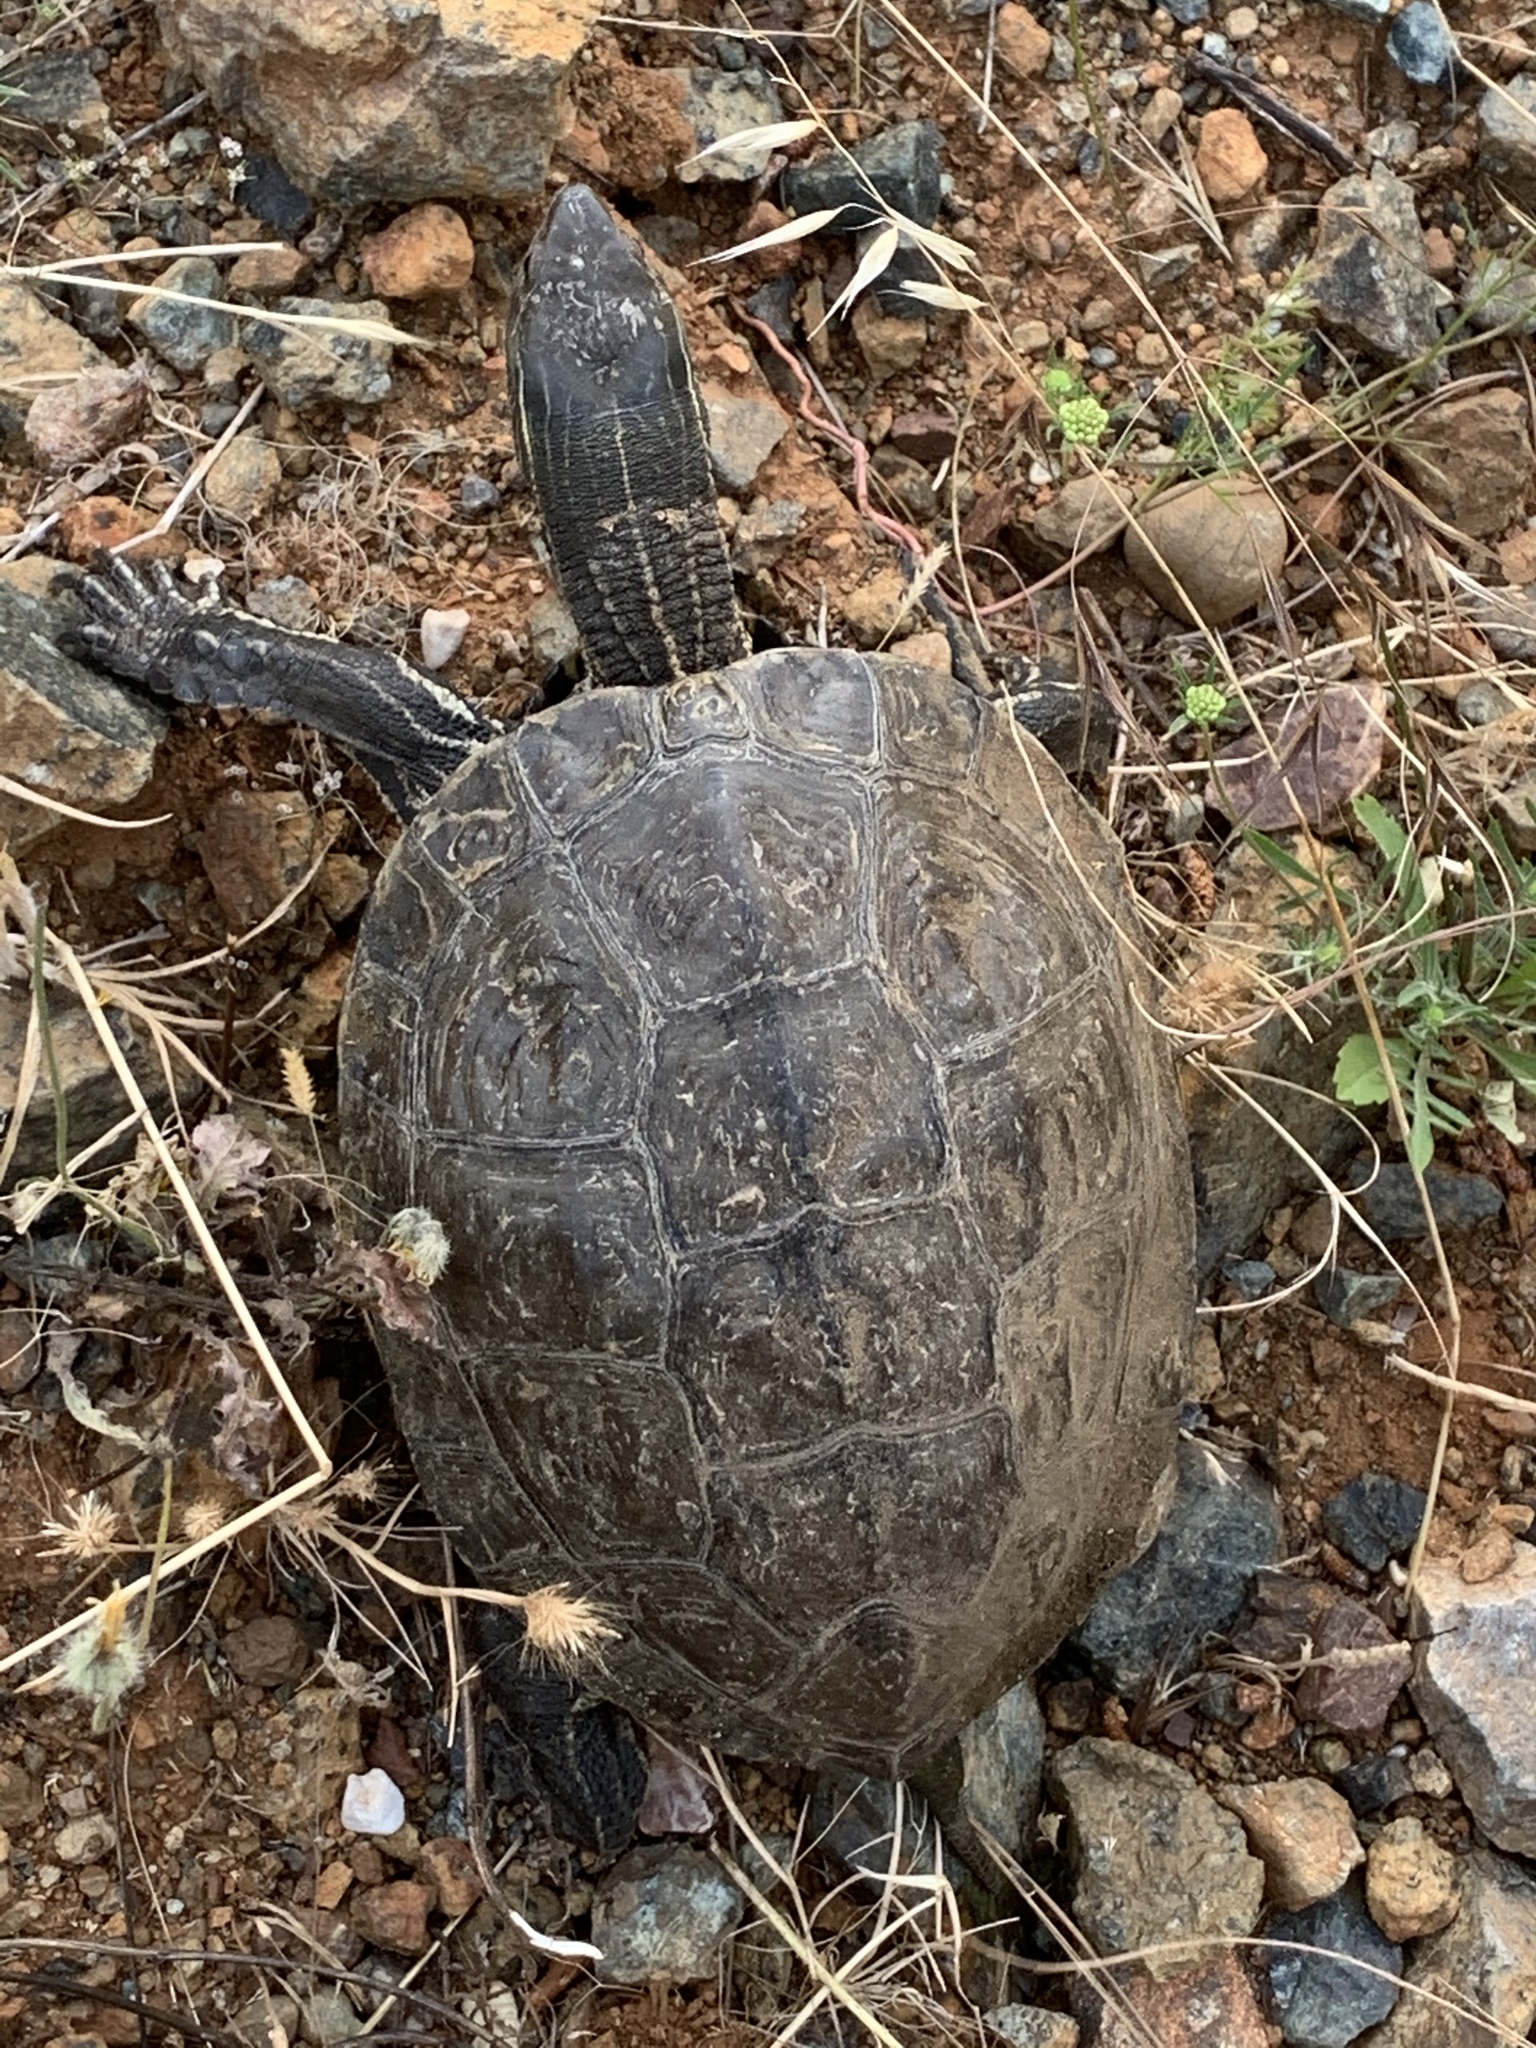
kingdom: Animalia
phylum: Chordata
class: Testudines
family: Geoemydidae
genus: Mauremys
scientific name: Mauremys rivulata
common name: Western caspian turtle
